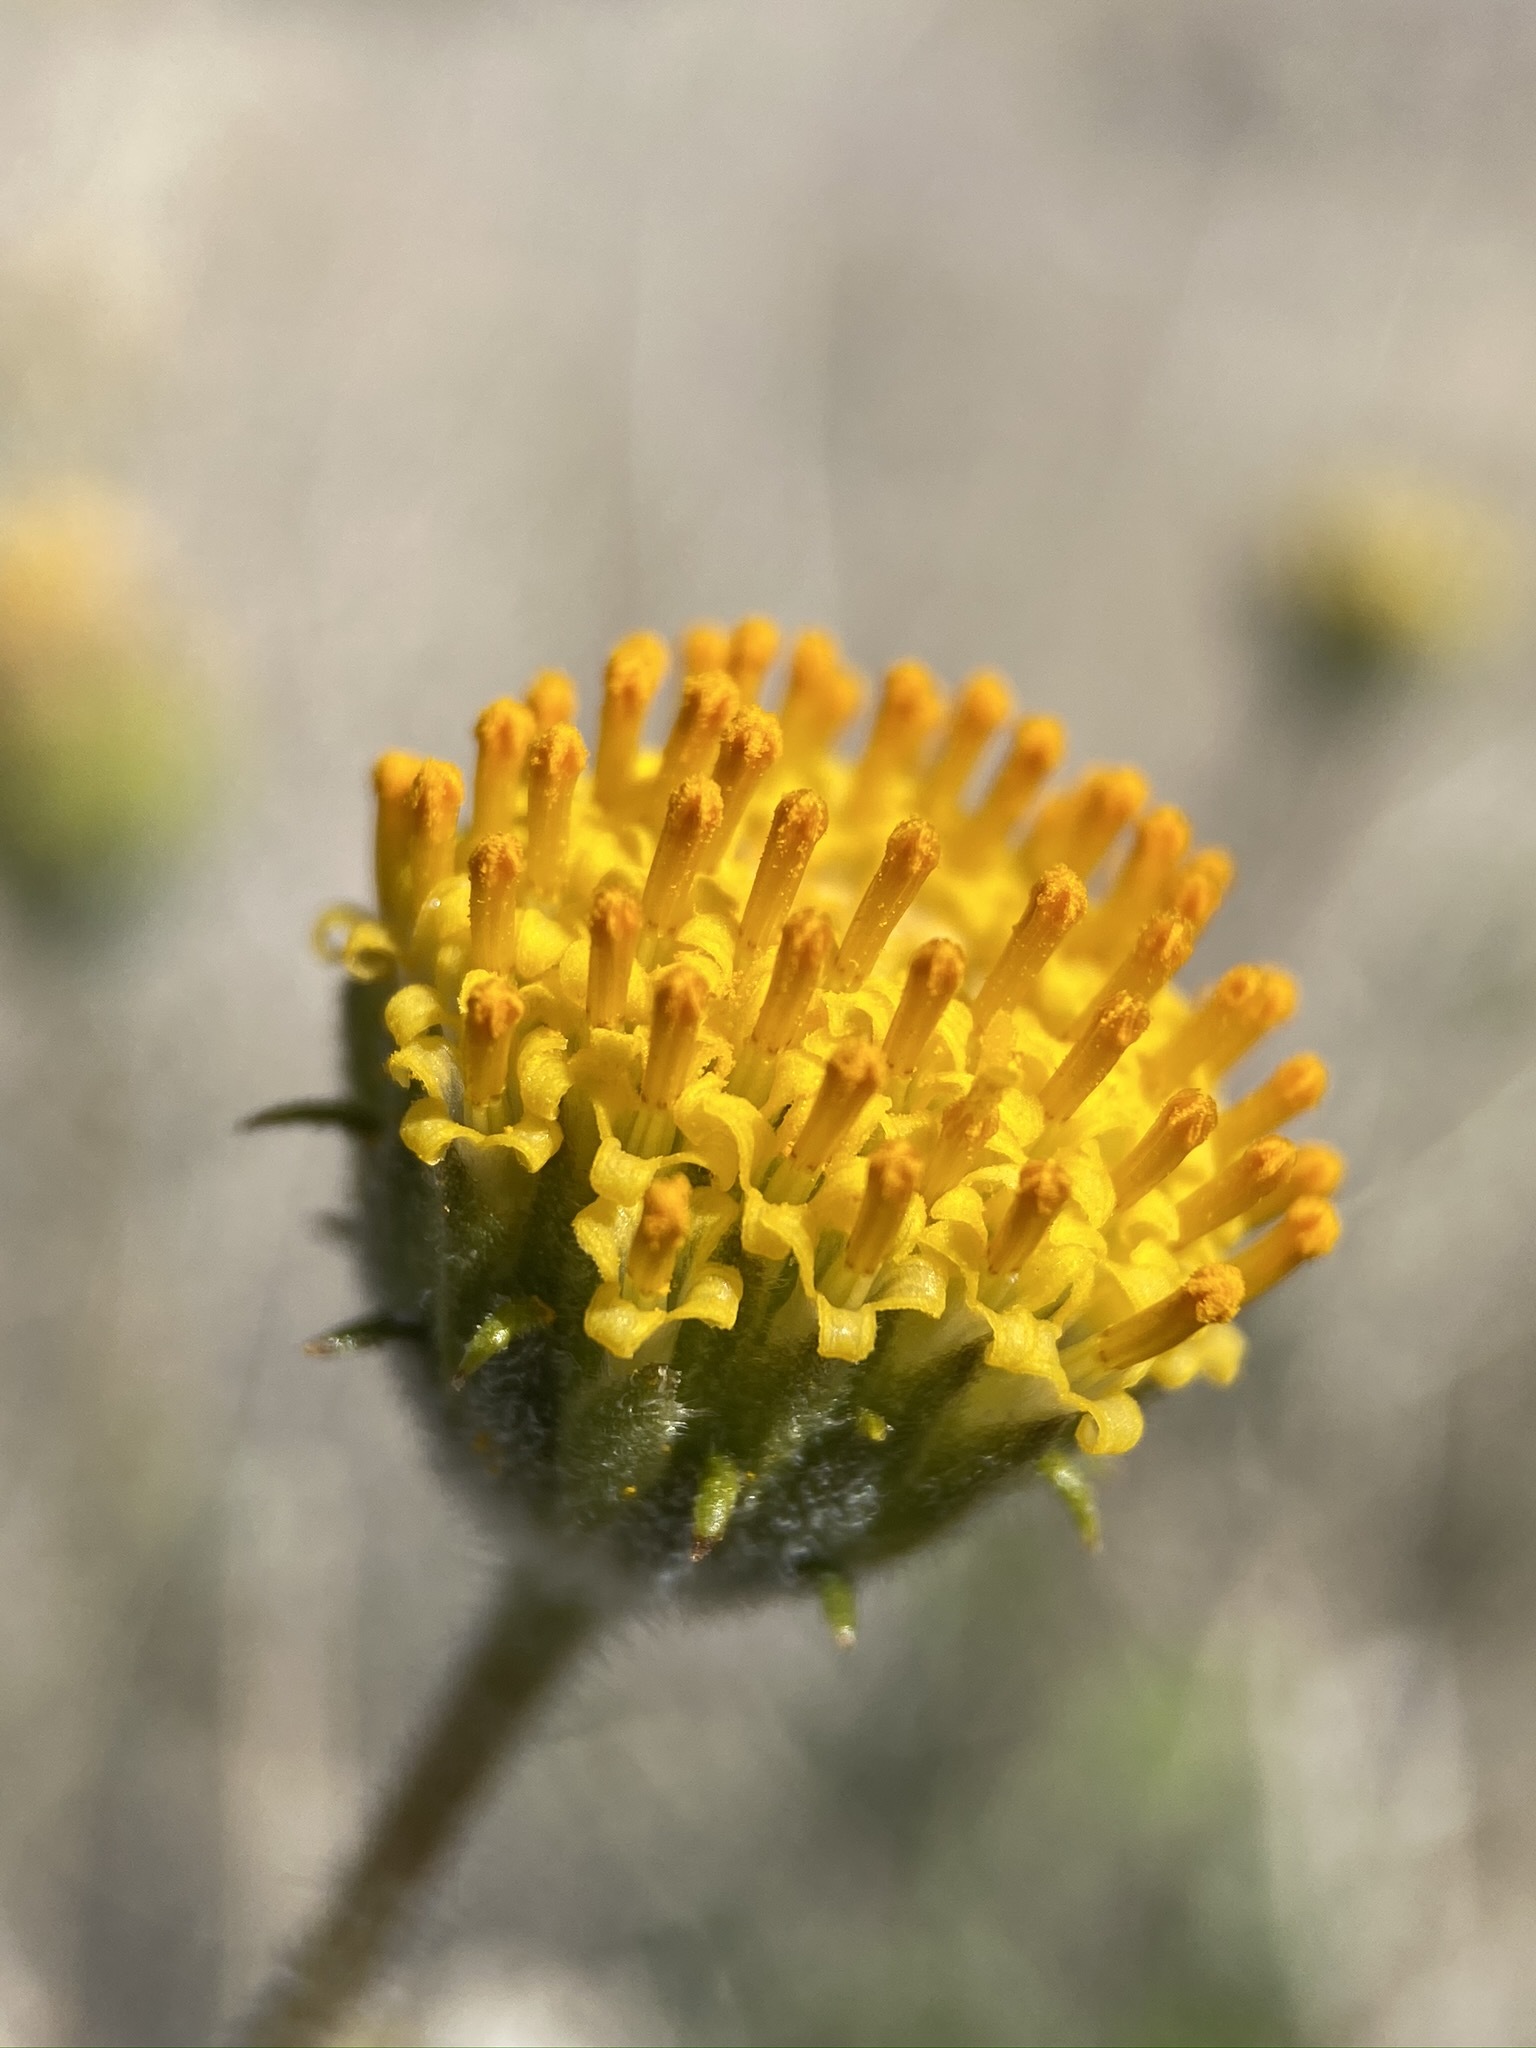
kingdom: Plantae
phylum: Tracheophyta
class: Magnoliopsida
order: Asterales
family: Asteraceae
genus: Encelia
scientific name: Encelia frutescens
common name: Bush encelia
